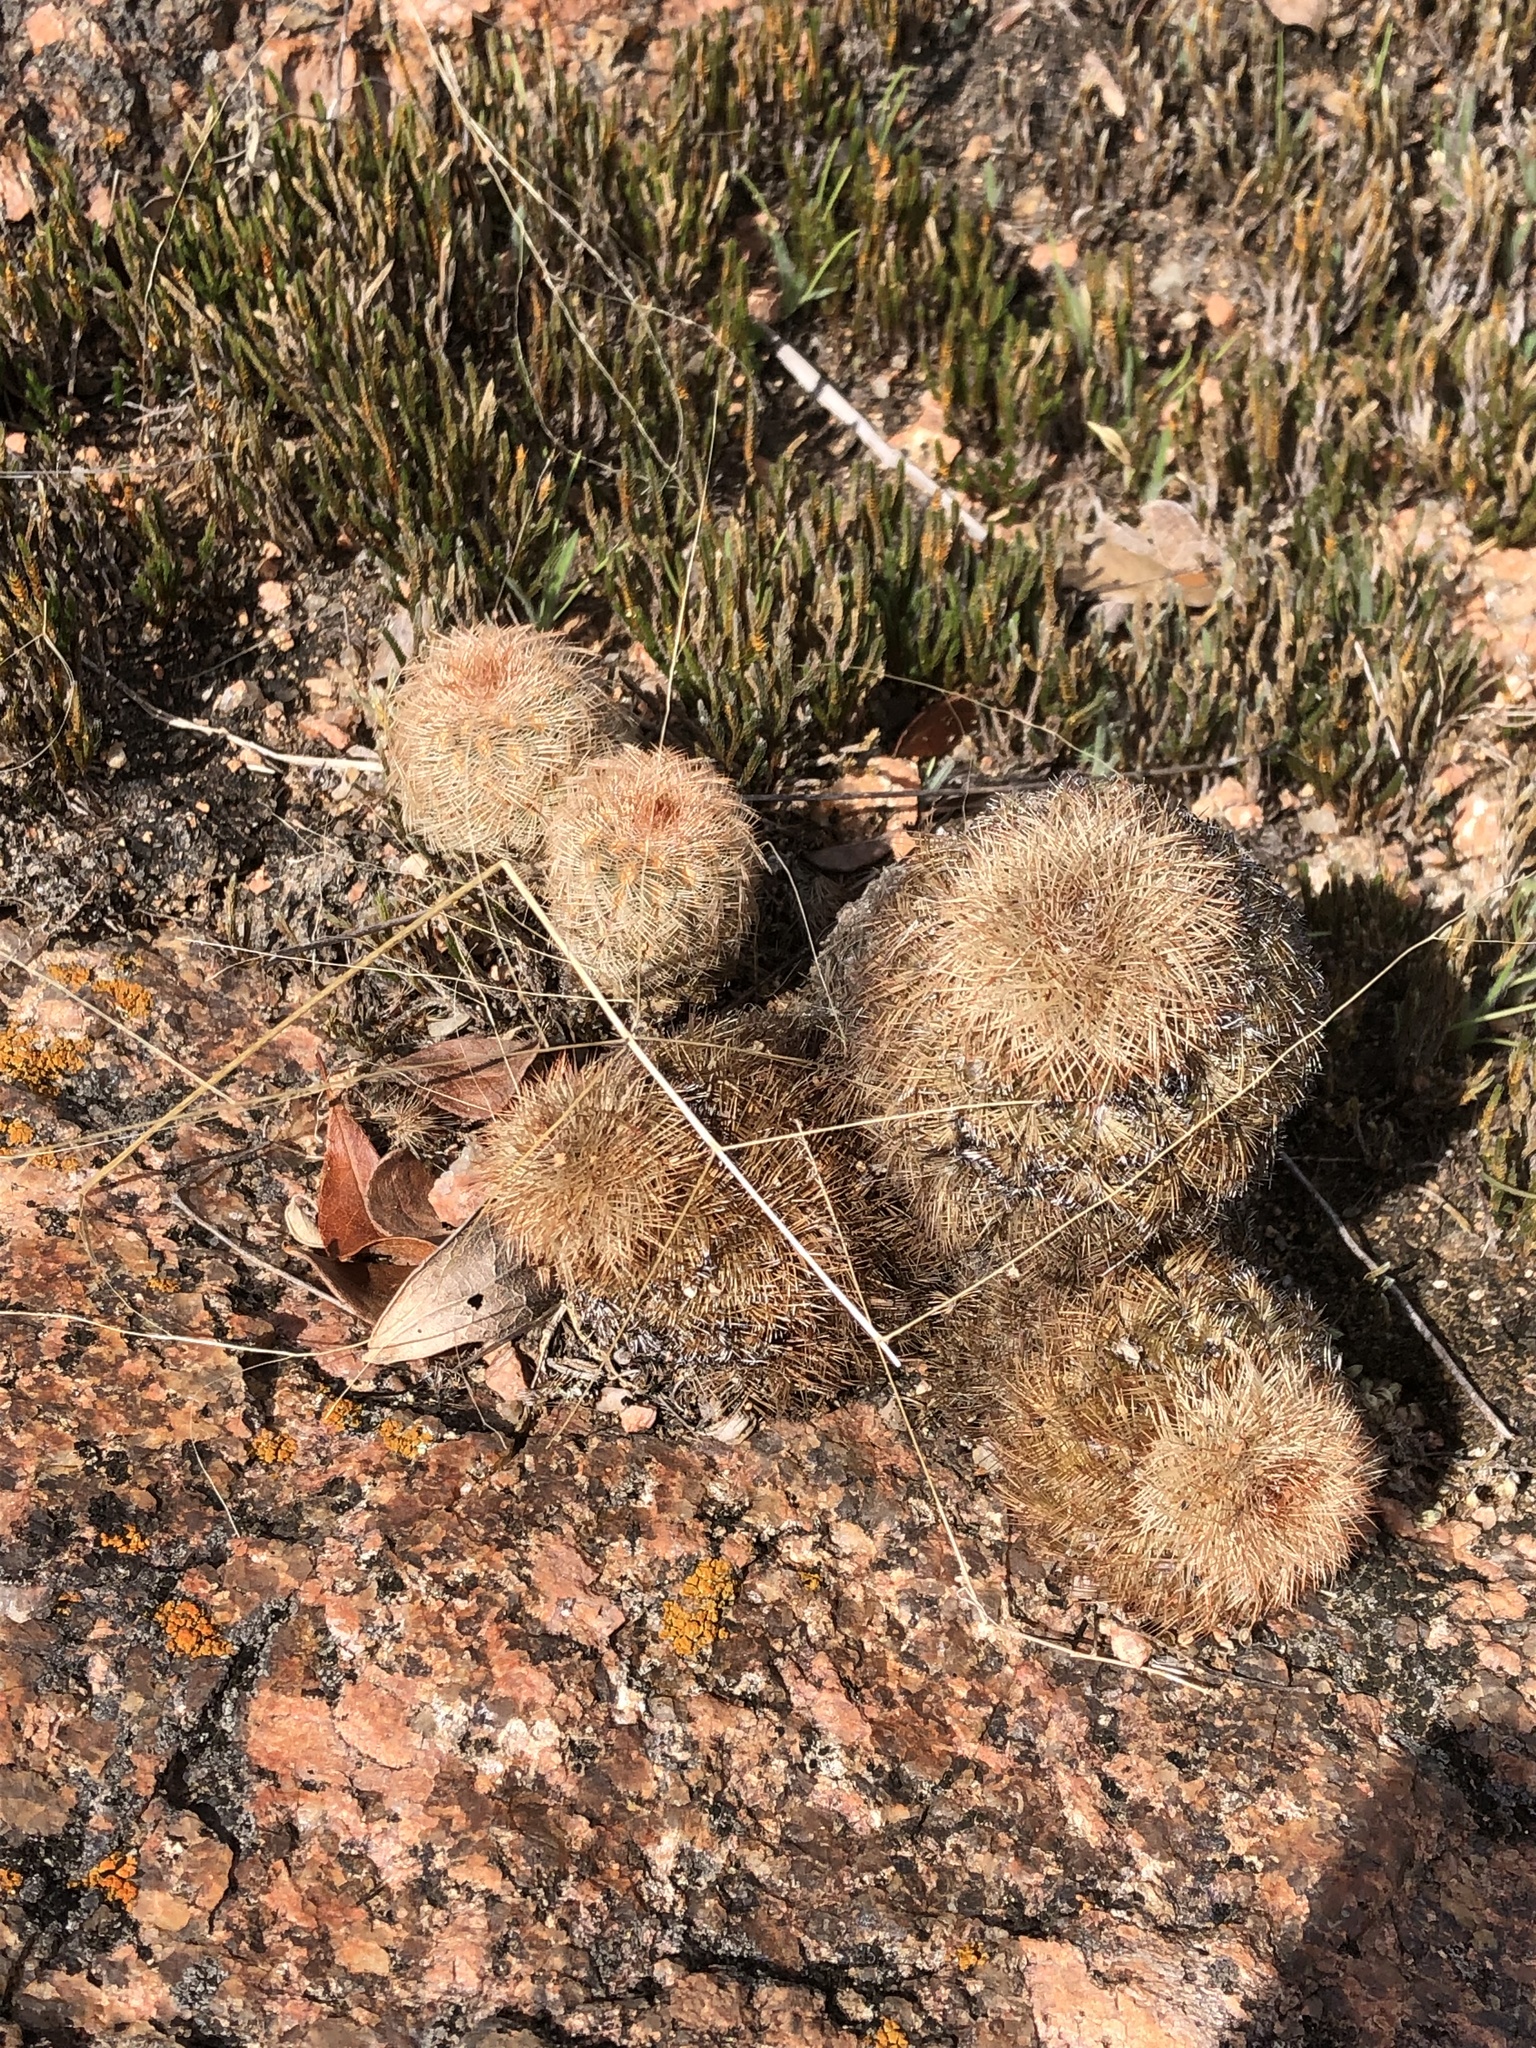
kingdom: Plantae
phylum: Tracheophyta
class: Magnoliopsida
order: Caryophyllales
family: Cactaceae
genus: Echinocereus
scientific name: Echinocereus reichenbachii
